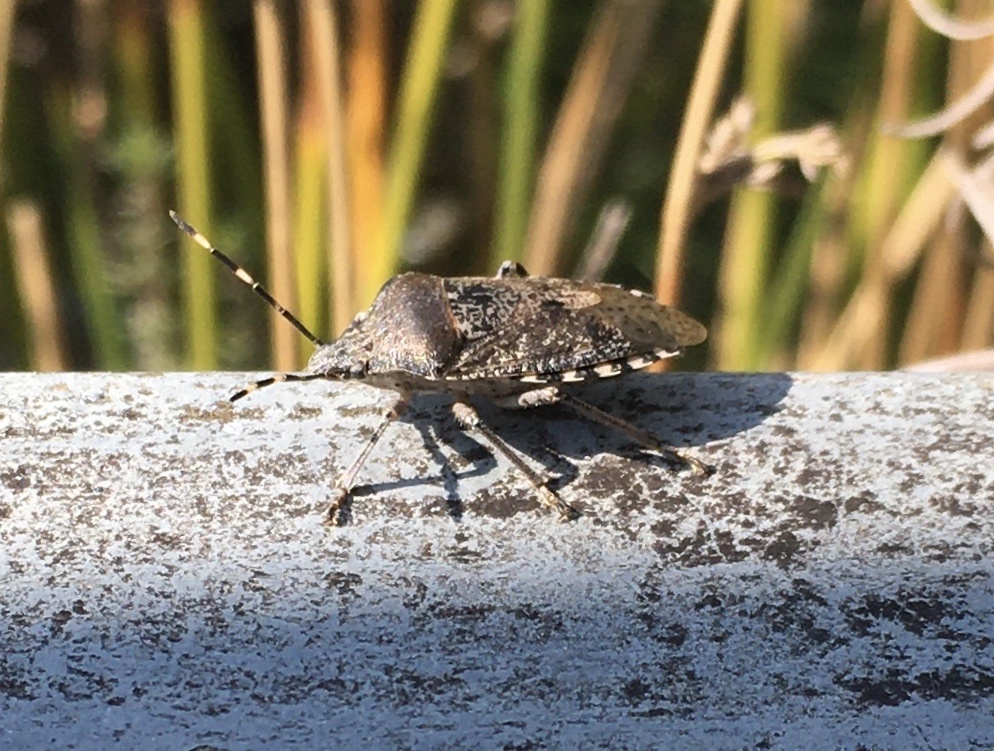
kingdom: Animalia
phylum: Arthropoda
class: Insecta
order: Hemiptera
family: Pentatomidae
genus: Rhaphigaster
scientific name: Rhaphigaster nebulosa
